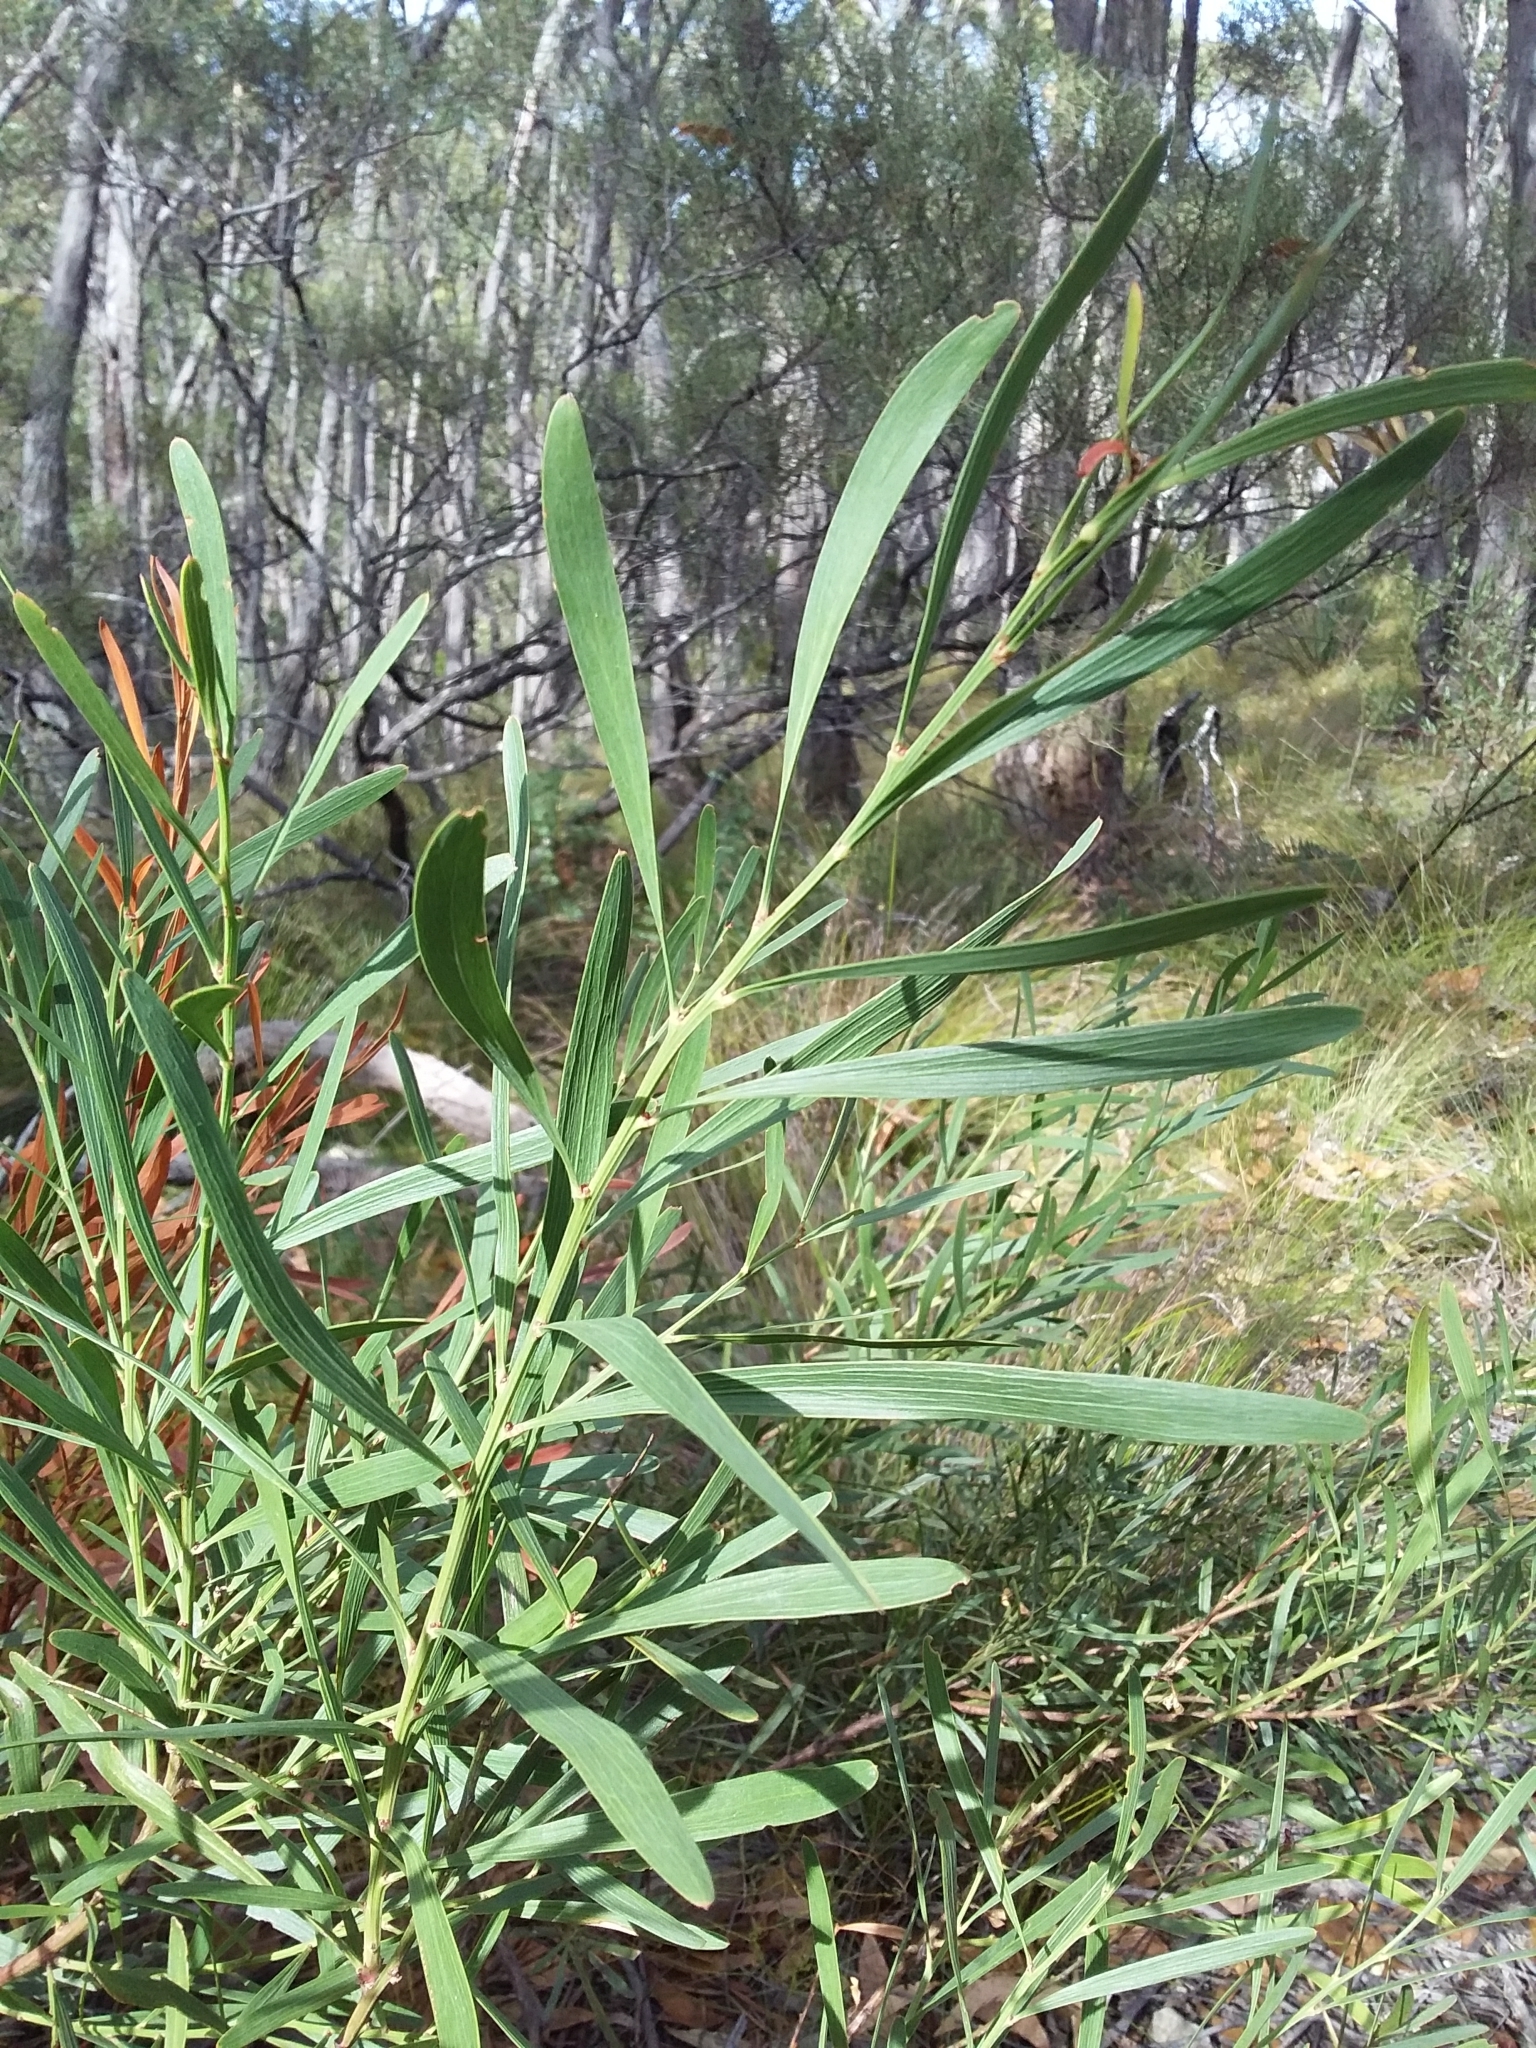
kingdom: Plantae
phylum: Tracheophyta
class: Magnoliopsida
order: Fabales
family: Fabaceae
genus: Daviesia
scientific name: Daviesia leptophylla
